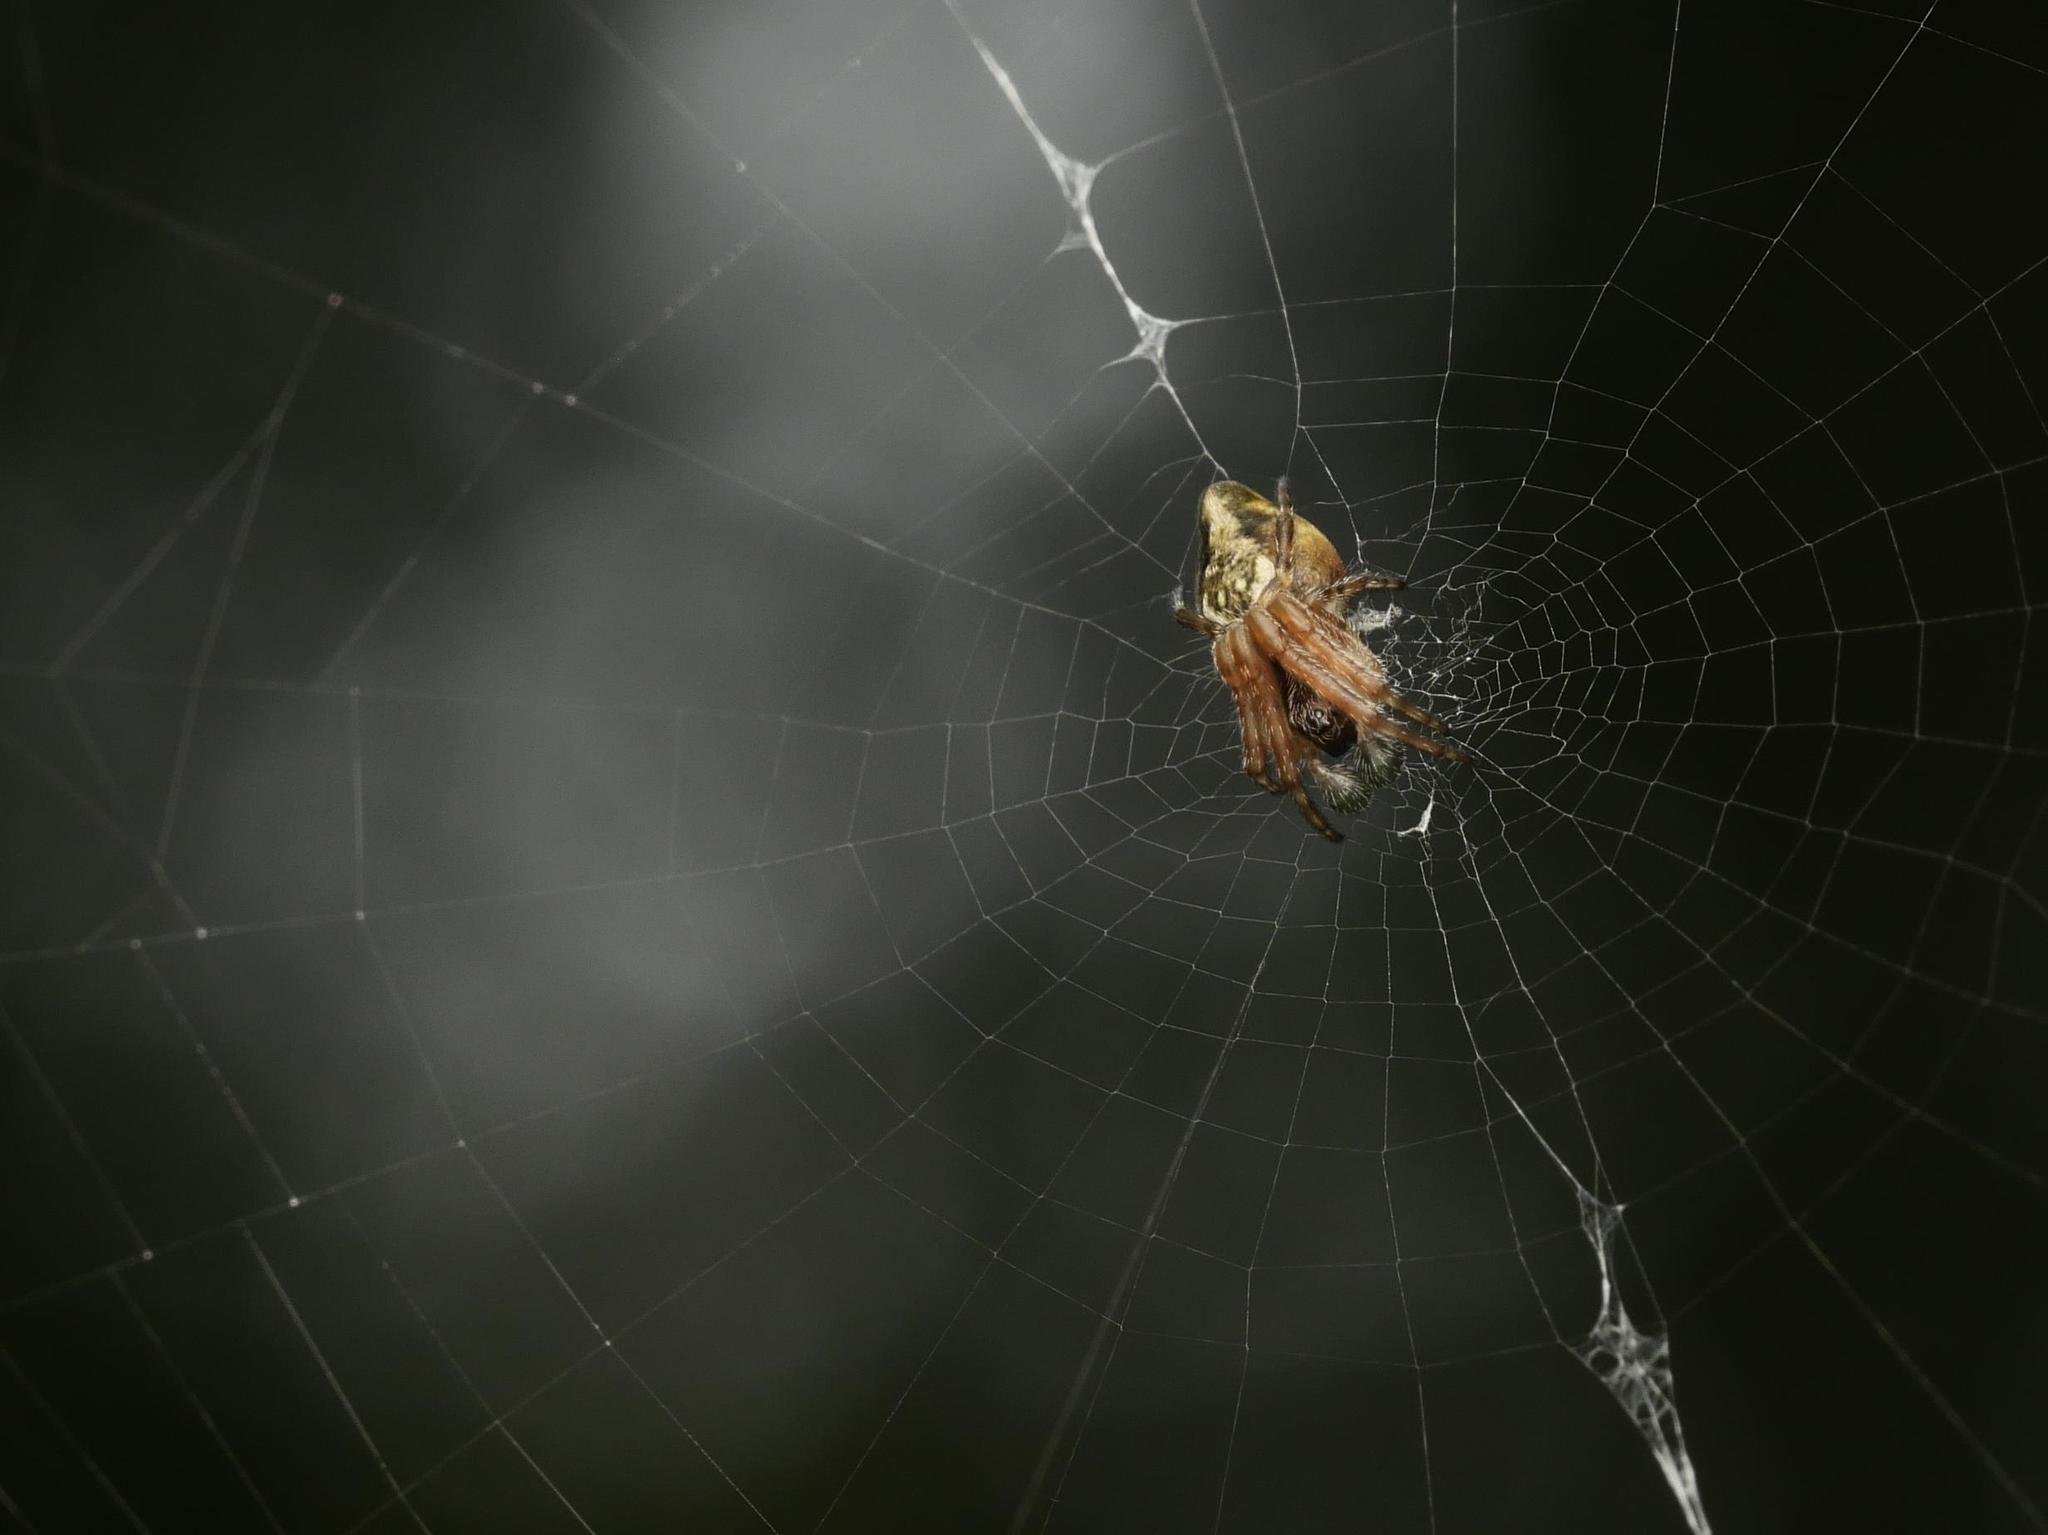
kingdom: Animalia
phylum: Arthropoda
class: Arachnida
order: Araneae
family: Araneidae
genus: Cyclosa
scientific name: Cyclosa conica
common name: Conical trashline orbweaver
